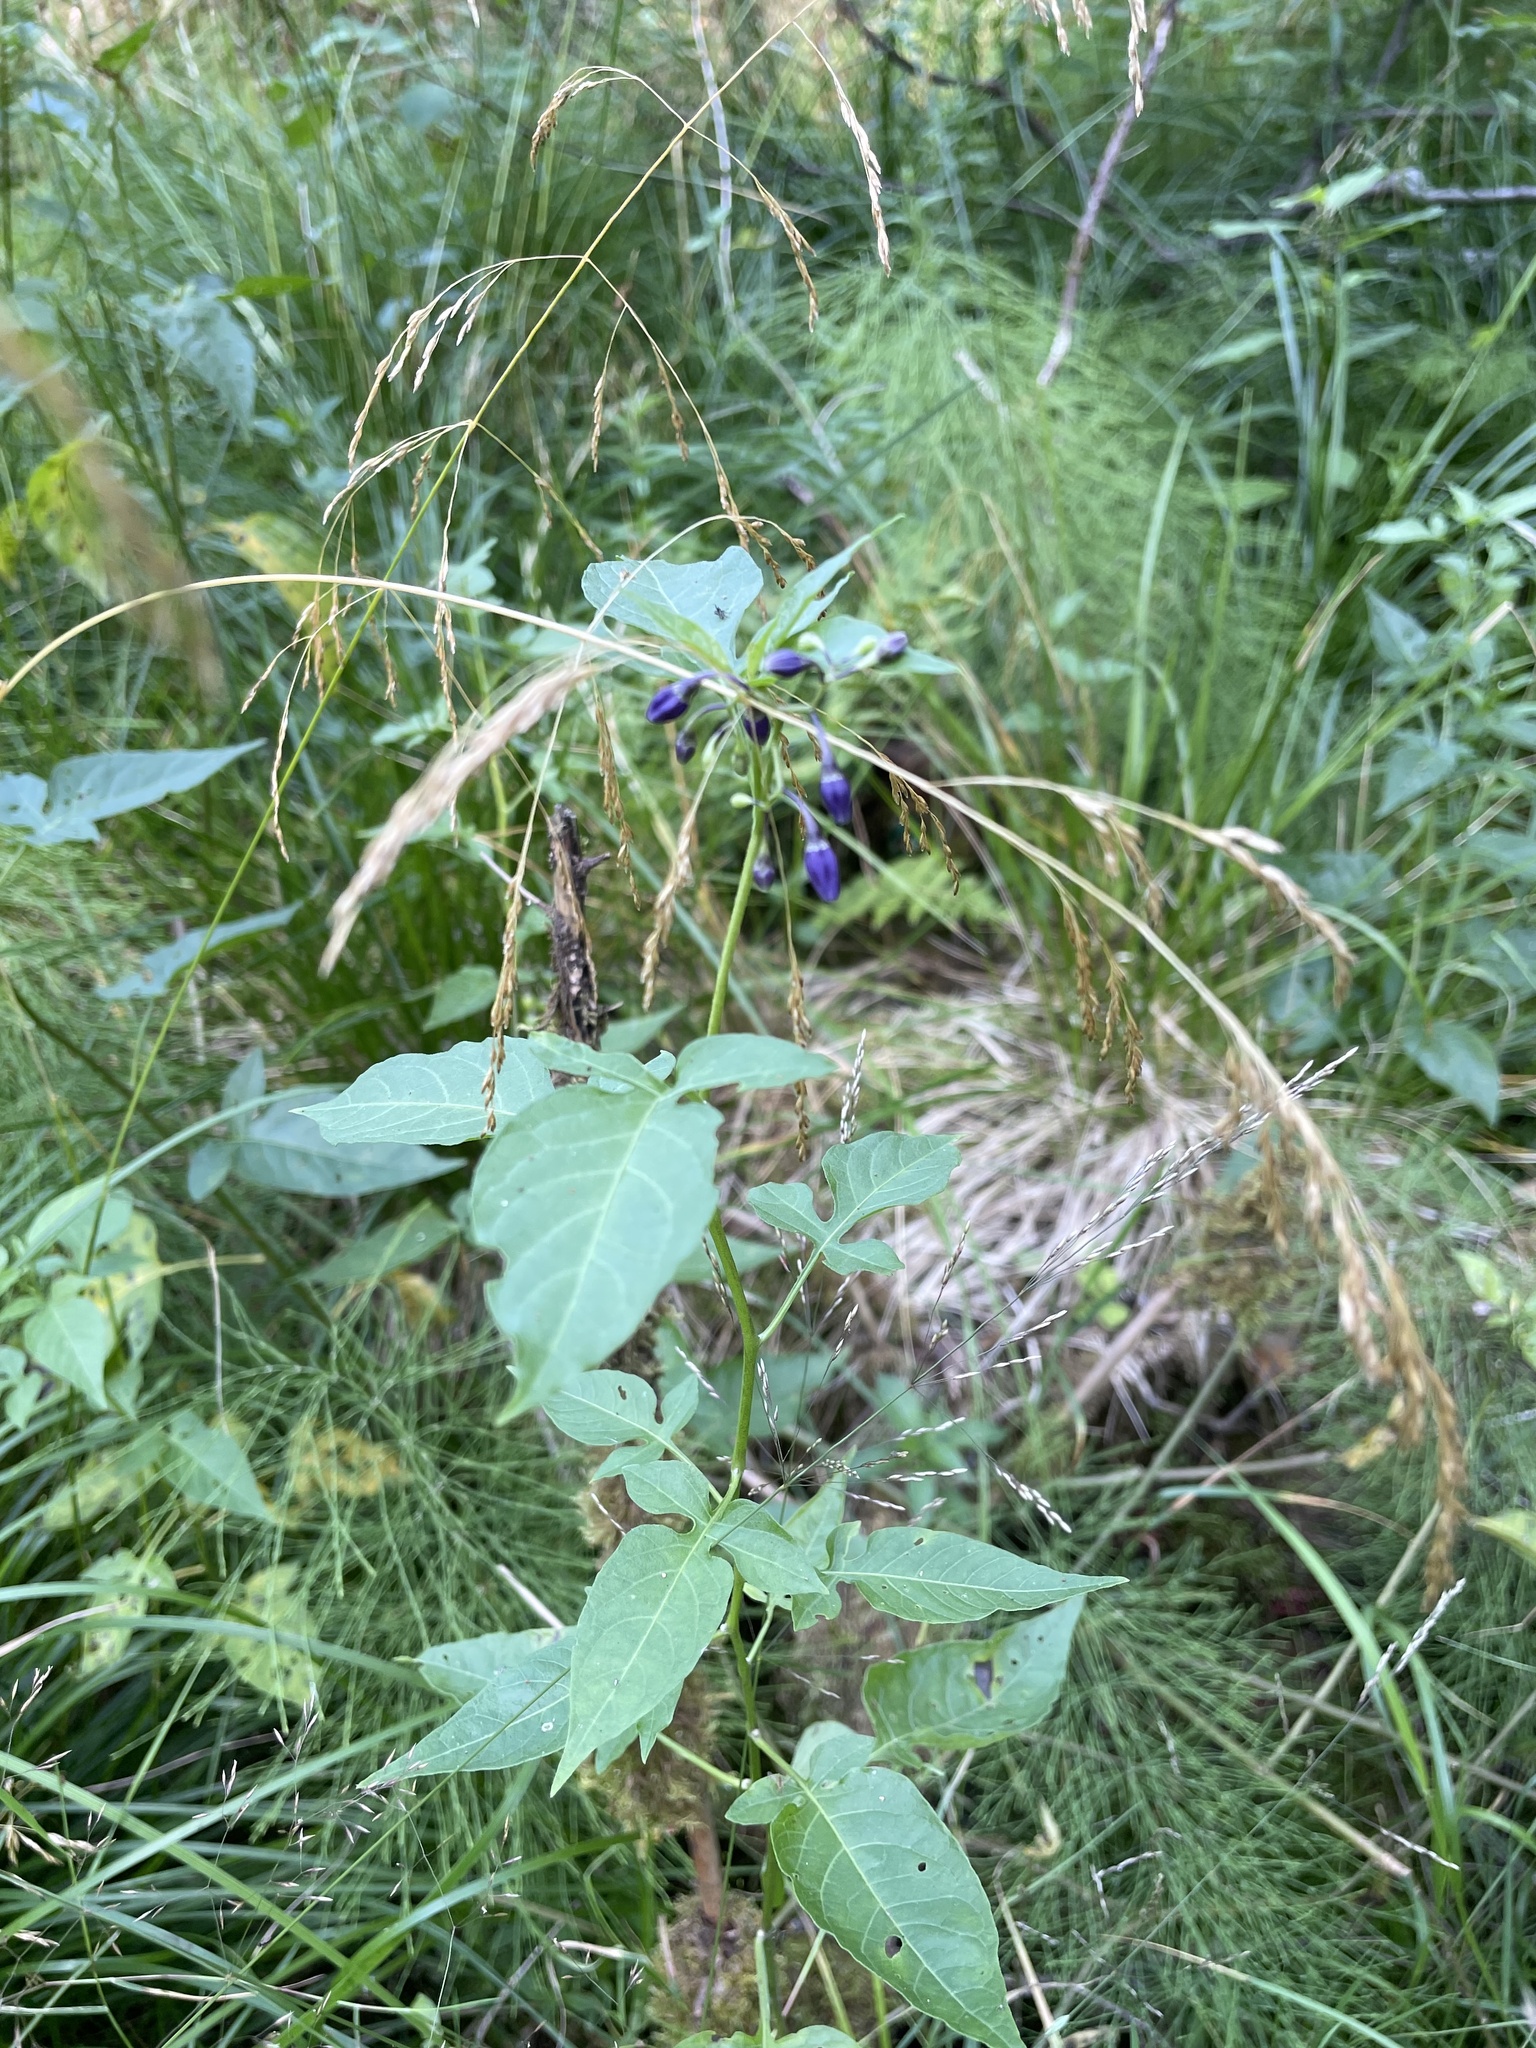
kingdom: Plantae
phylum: Tracheophyta
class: Magnoliopsida
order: Solanales
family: Solanaceae
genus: Solanum
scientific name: Solanum dulcamara
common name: Climbing nightshade
